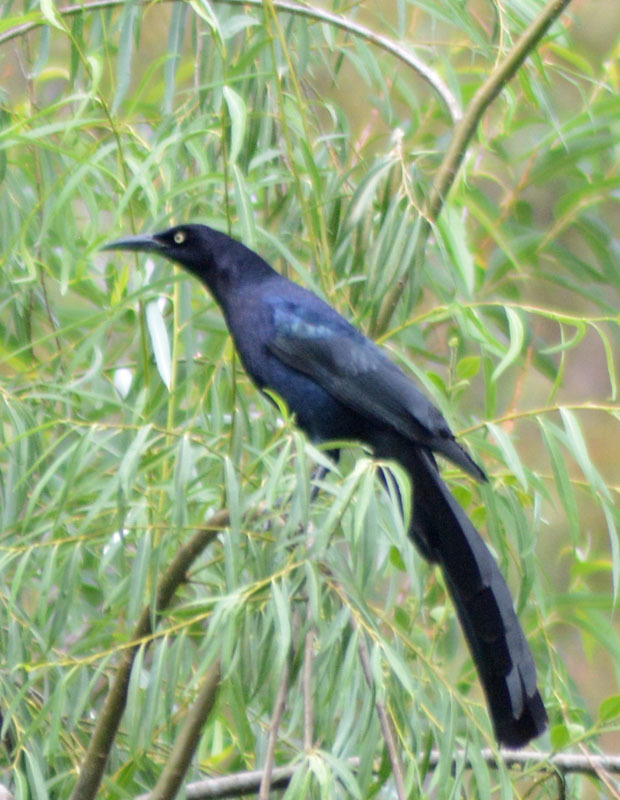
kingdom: Animalia
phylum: Chordata
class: Aves
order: Passeriformes
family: Icteridae
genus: Quiscalus
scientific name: Quiscalus mexicanus
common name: Great-tailed grackle
